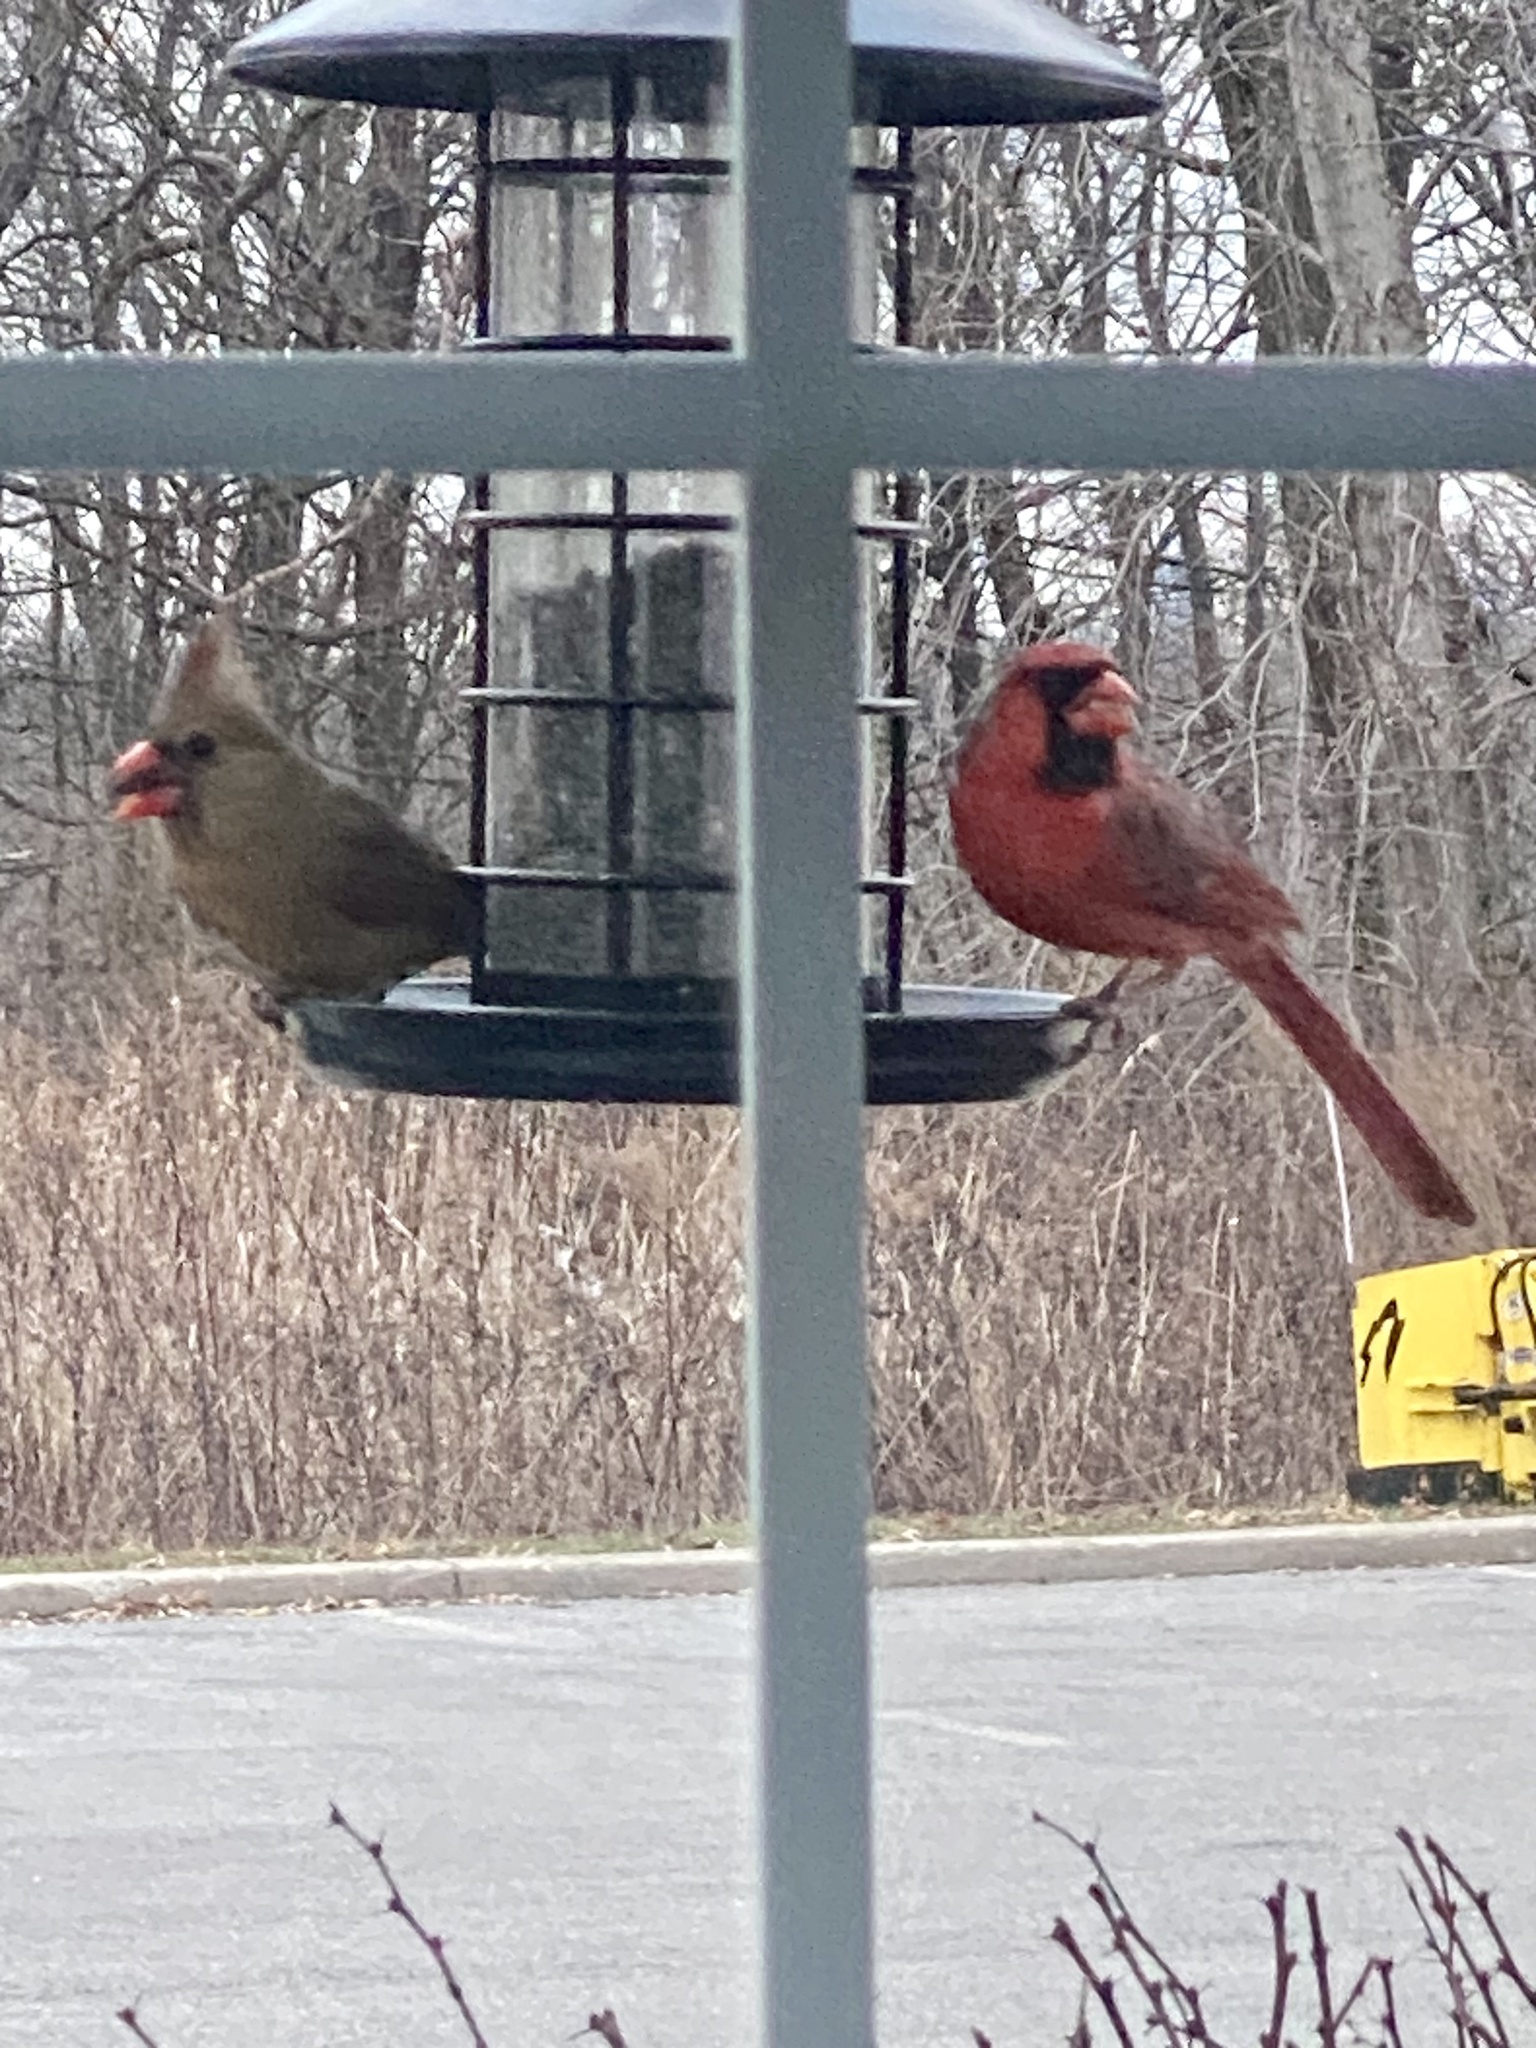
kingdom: Animalia
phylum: Chordata
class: Aves
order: Passeriformes
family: Cardinalidae
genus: Cardinalis
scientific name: Cardinalis cardinalis
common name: Northern cardinal
